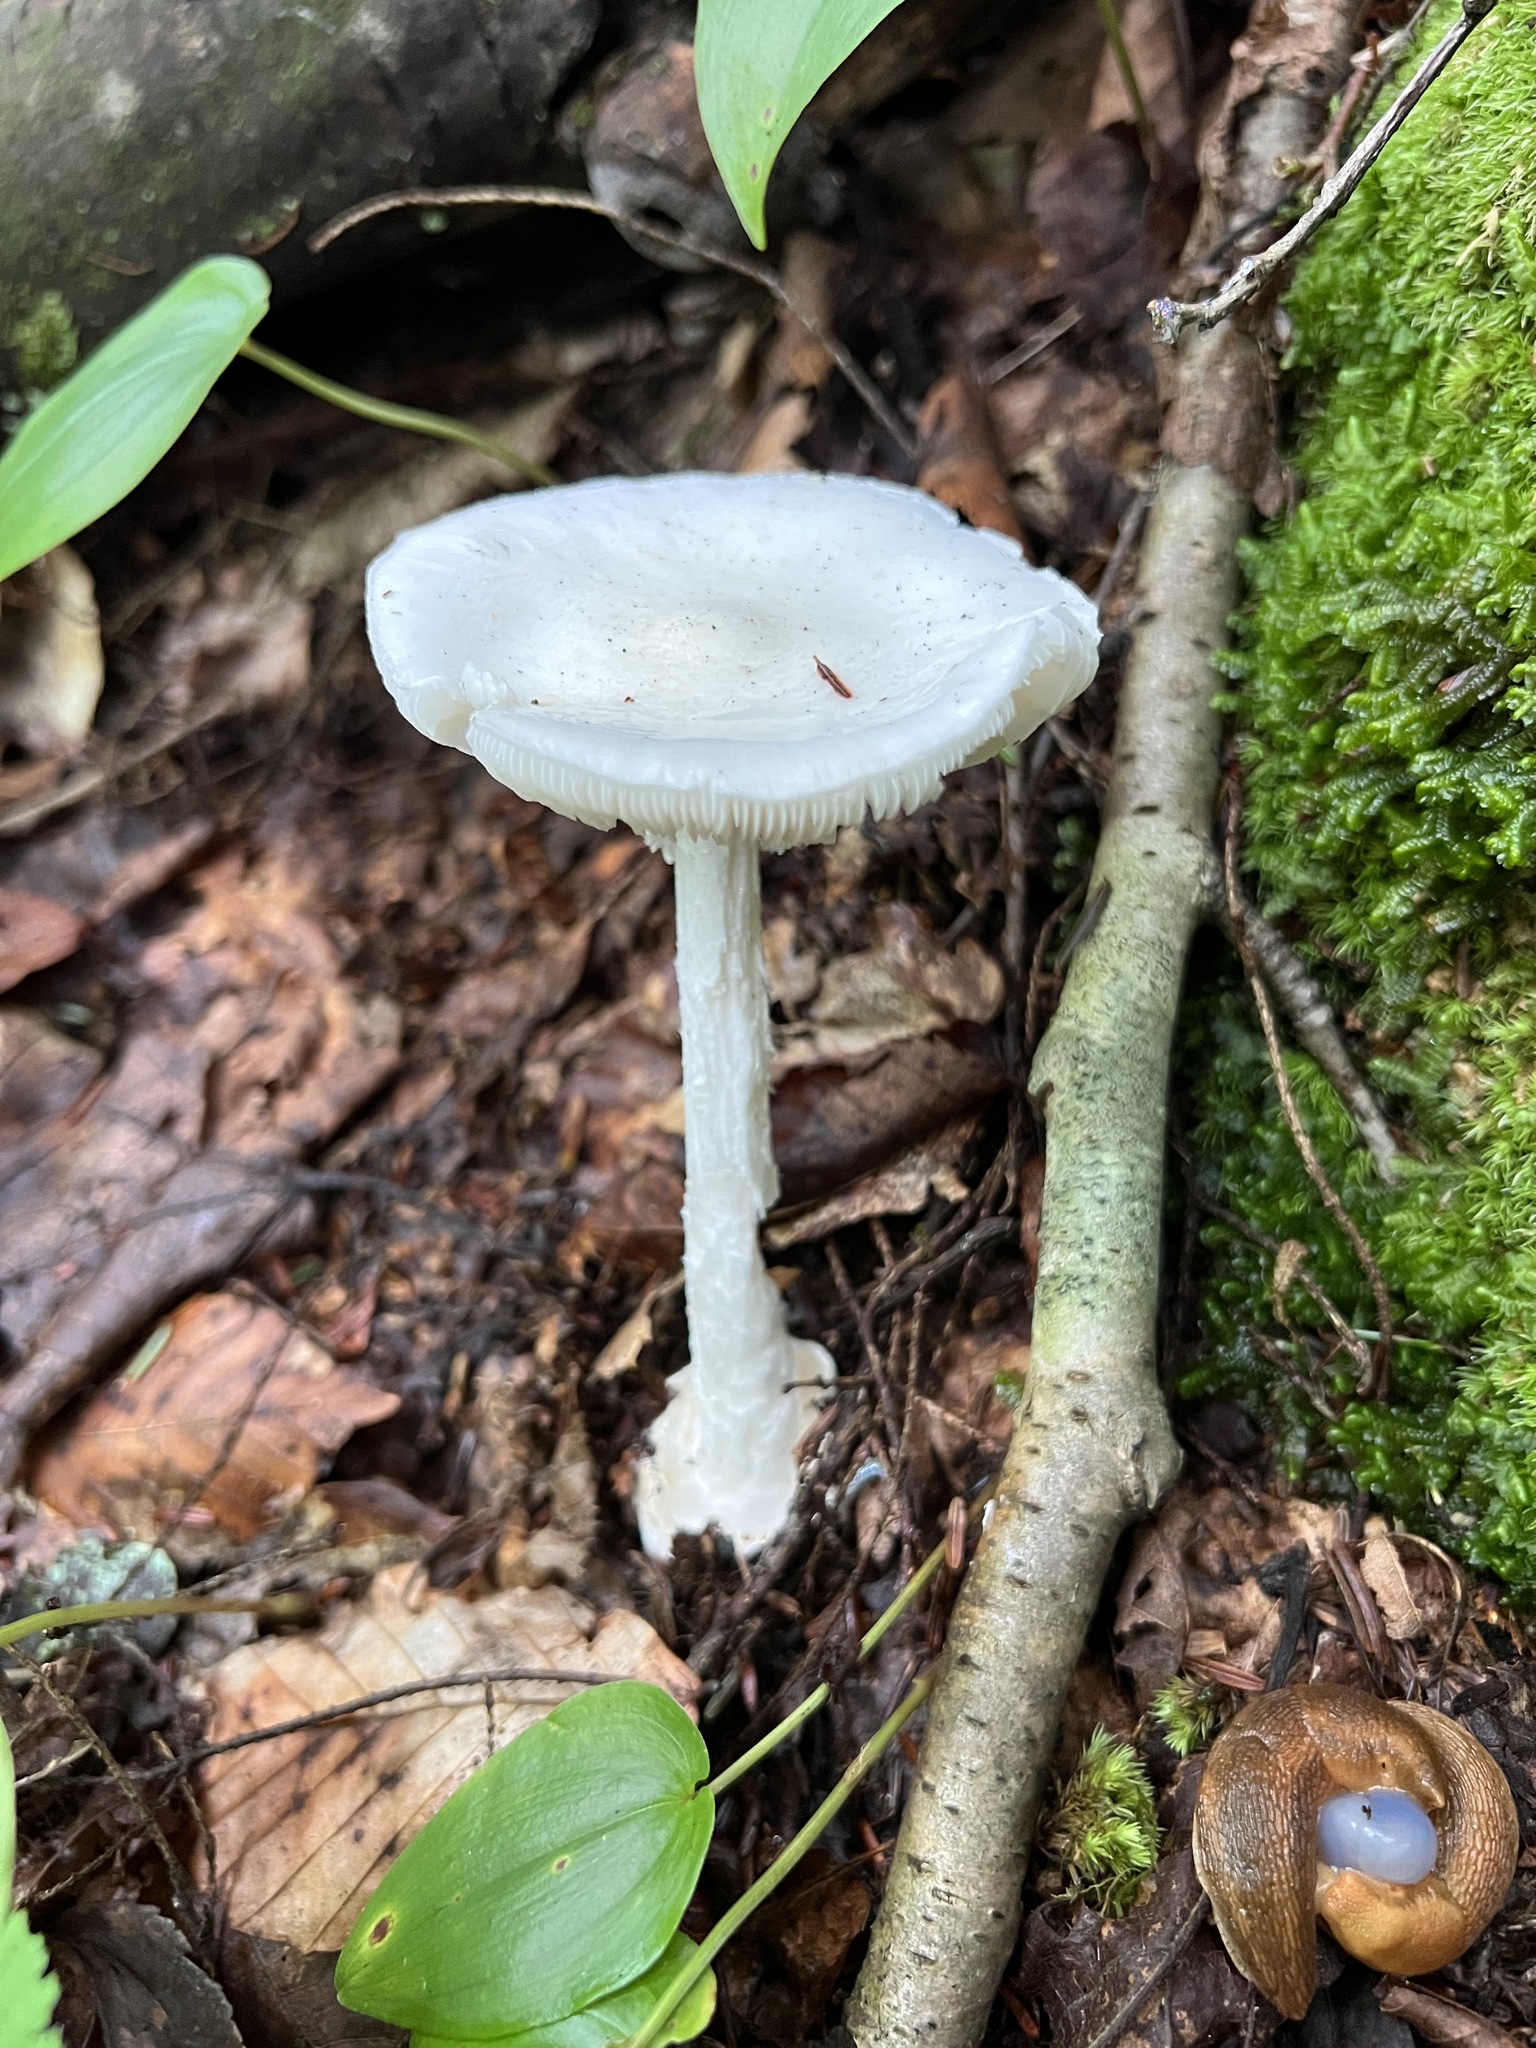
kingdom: Fungi
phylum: Basidiomycota
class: Agaricomycetes
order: Agaricales
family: Amanitaceae
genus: Amanita
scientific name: Amanita bisporigera
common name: Eastern north american destroying angel
